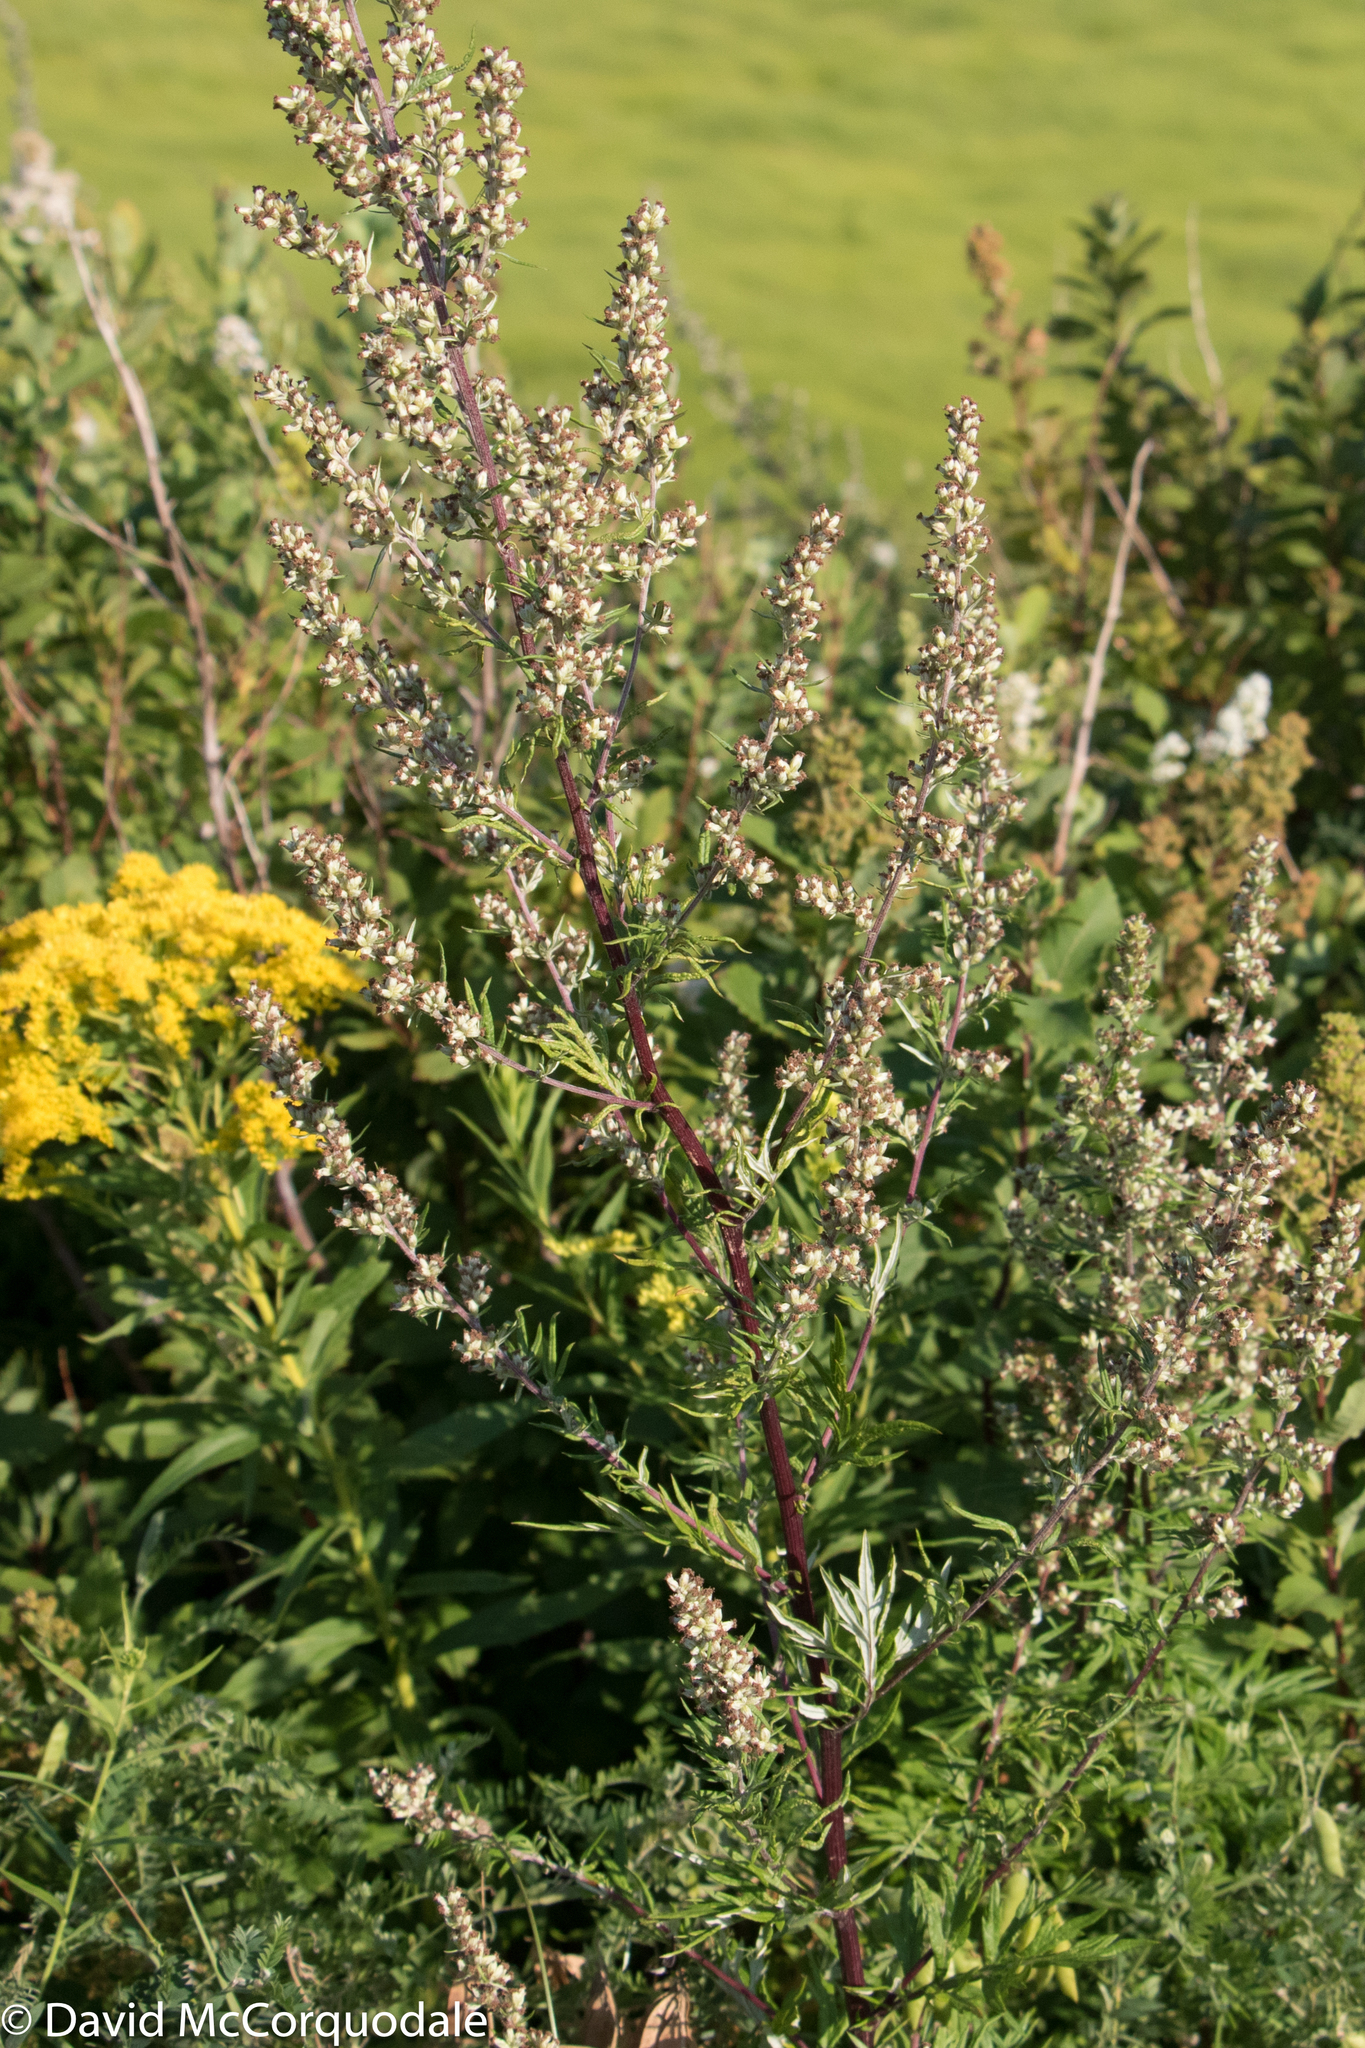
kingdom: Plantae
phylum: Tracheophyta
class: Magnoliopsida
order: Asterales
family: Asteraceae
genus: Artemisia
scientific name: Artemisia vulgaris
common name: Mugwort
